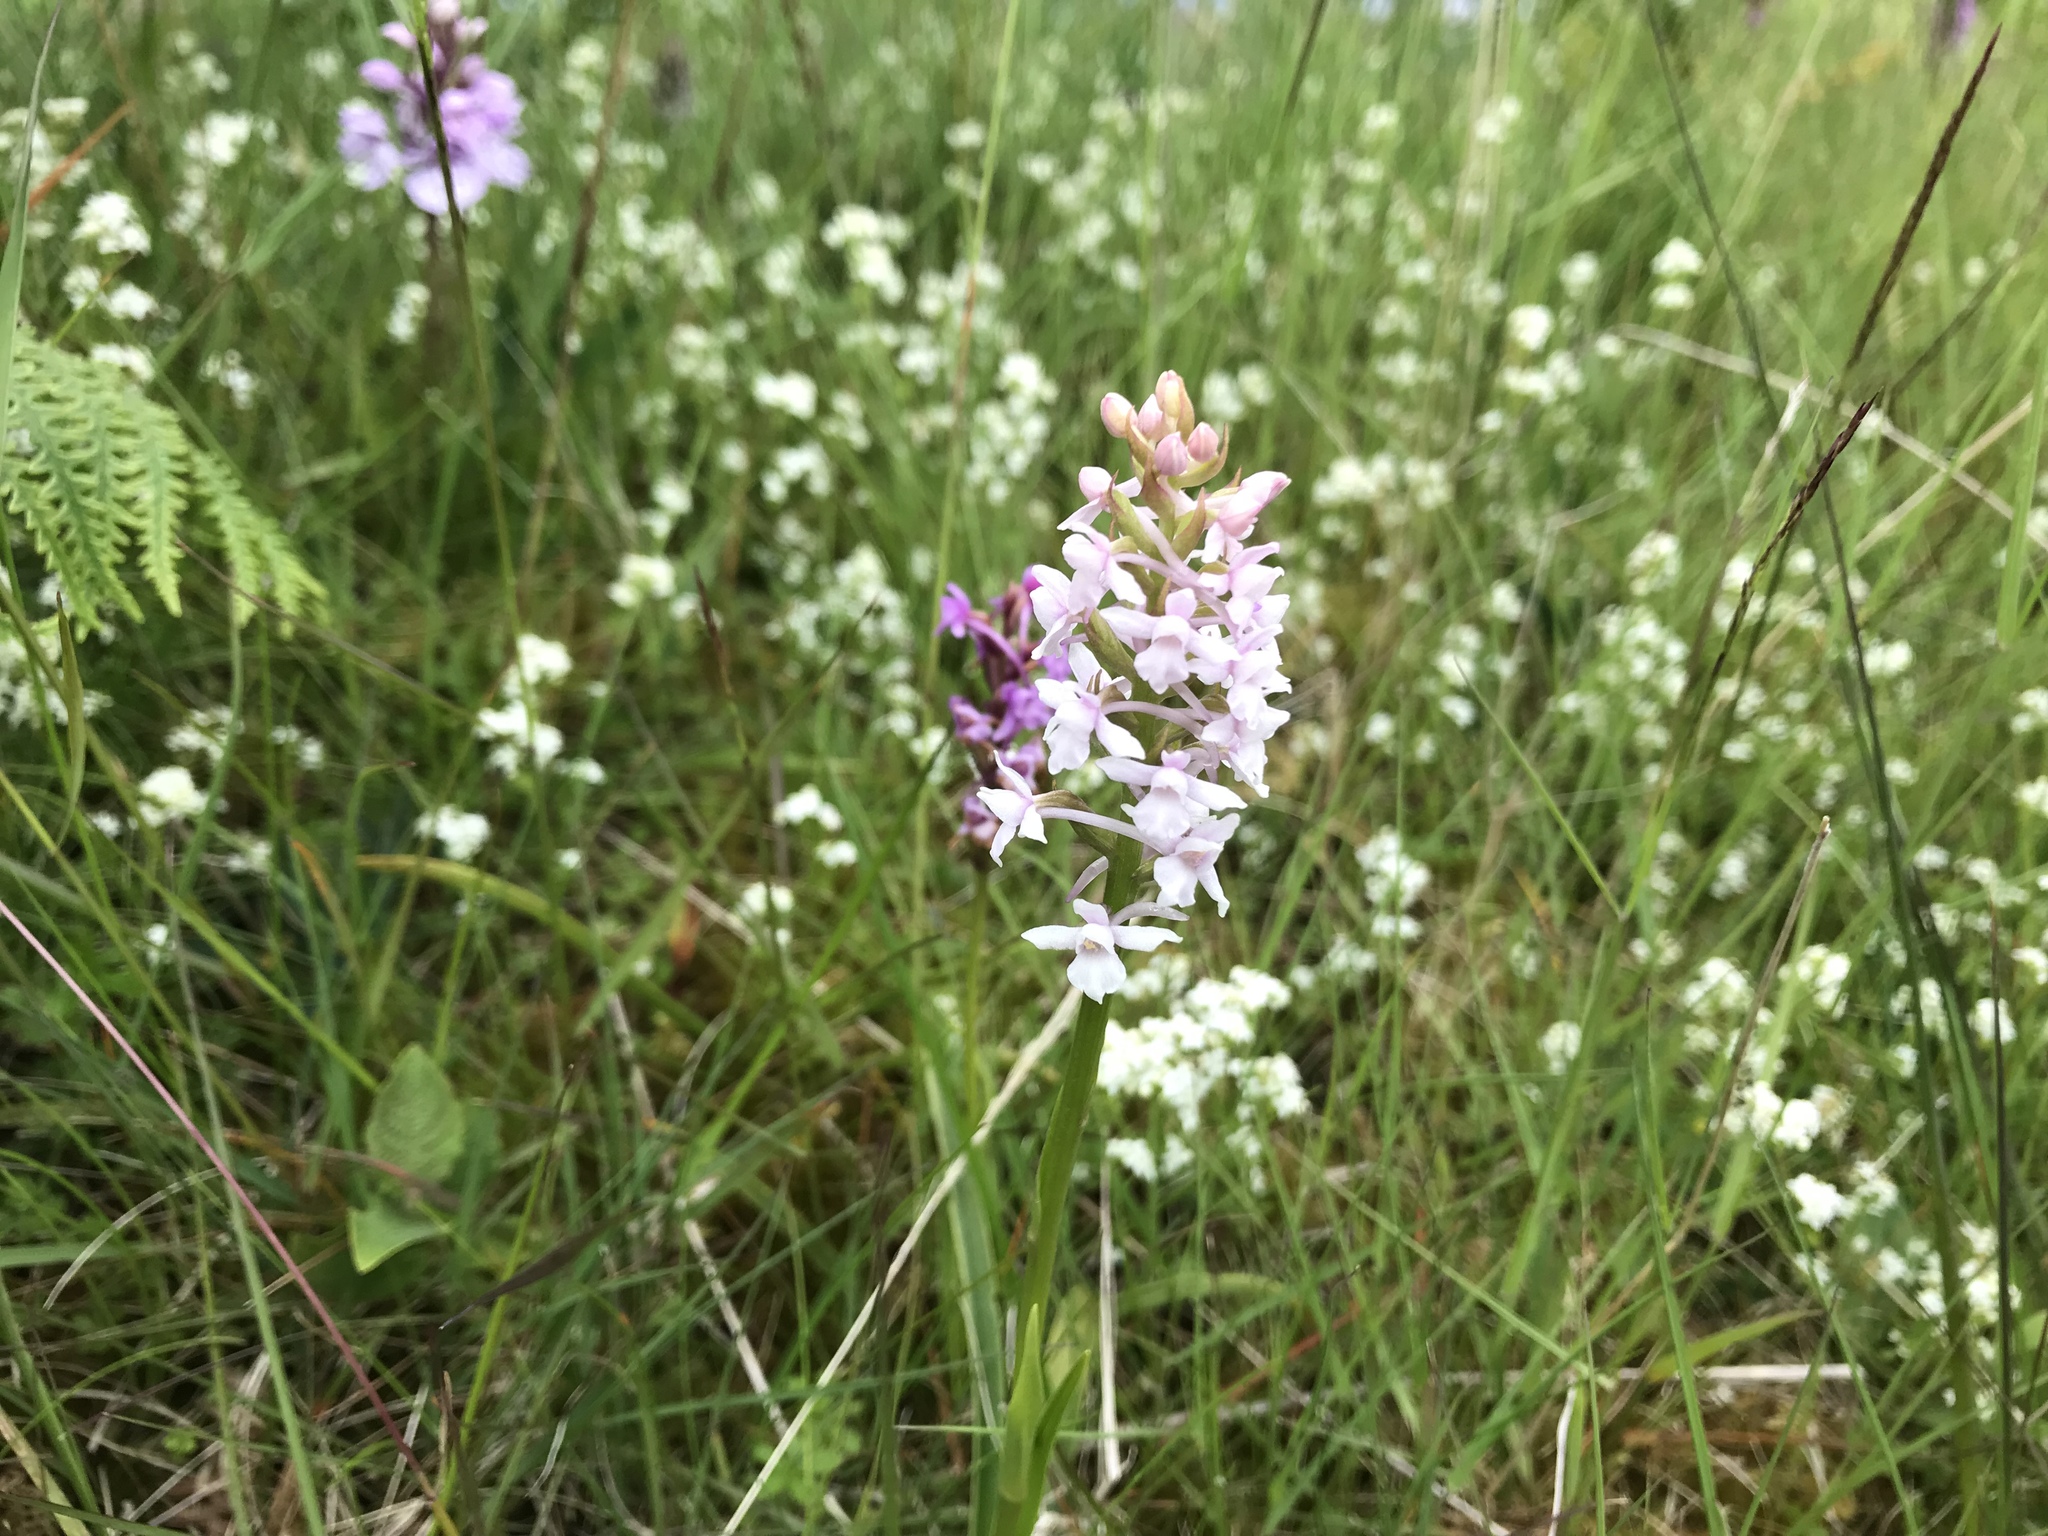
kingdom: Plantae
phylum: Tracheophyta
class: Liliopsida
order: Asparagales
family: Orchidaceae
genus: Gymnadenia
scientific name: Gymnadenia conopsea
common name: Fragrant orchid
